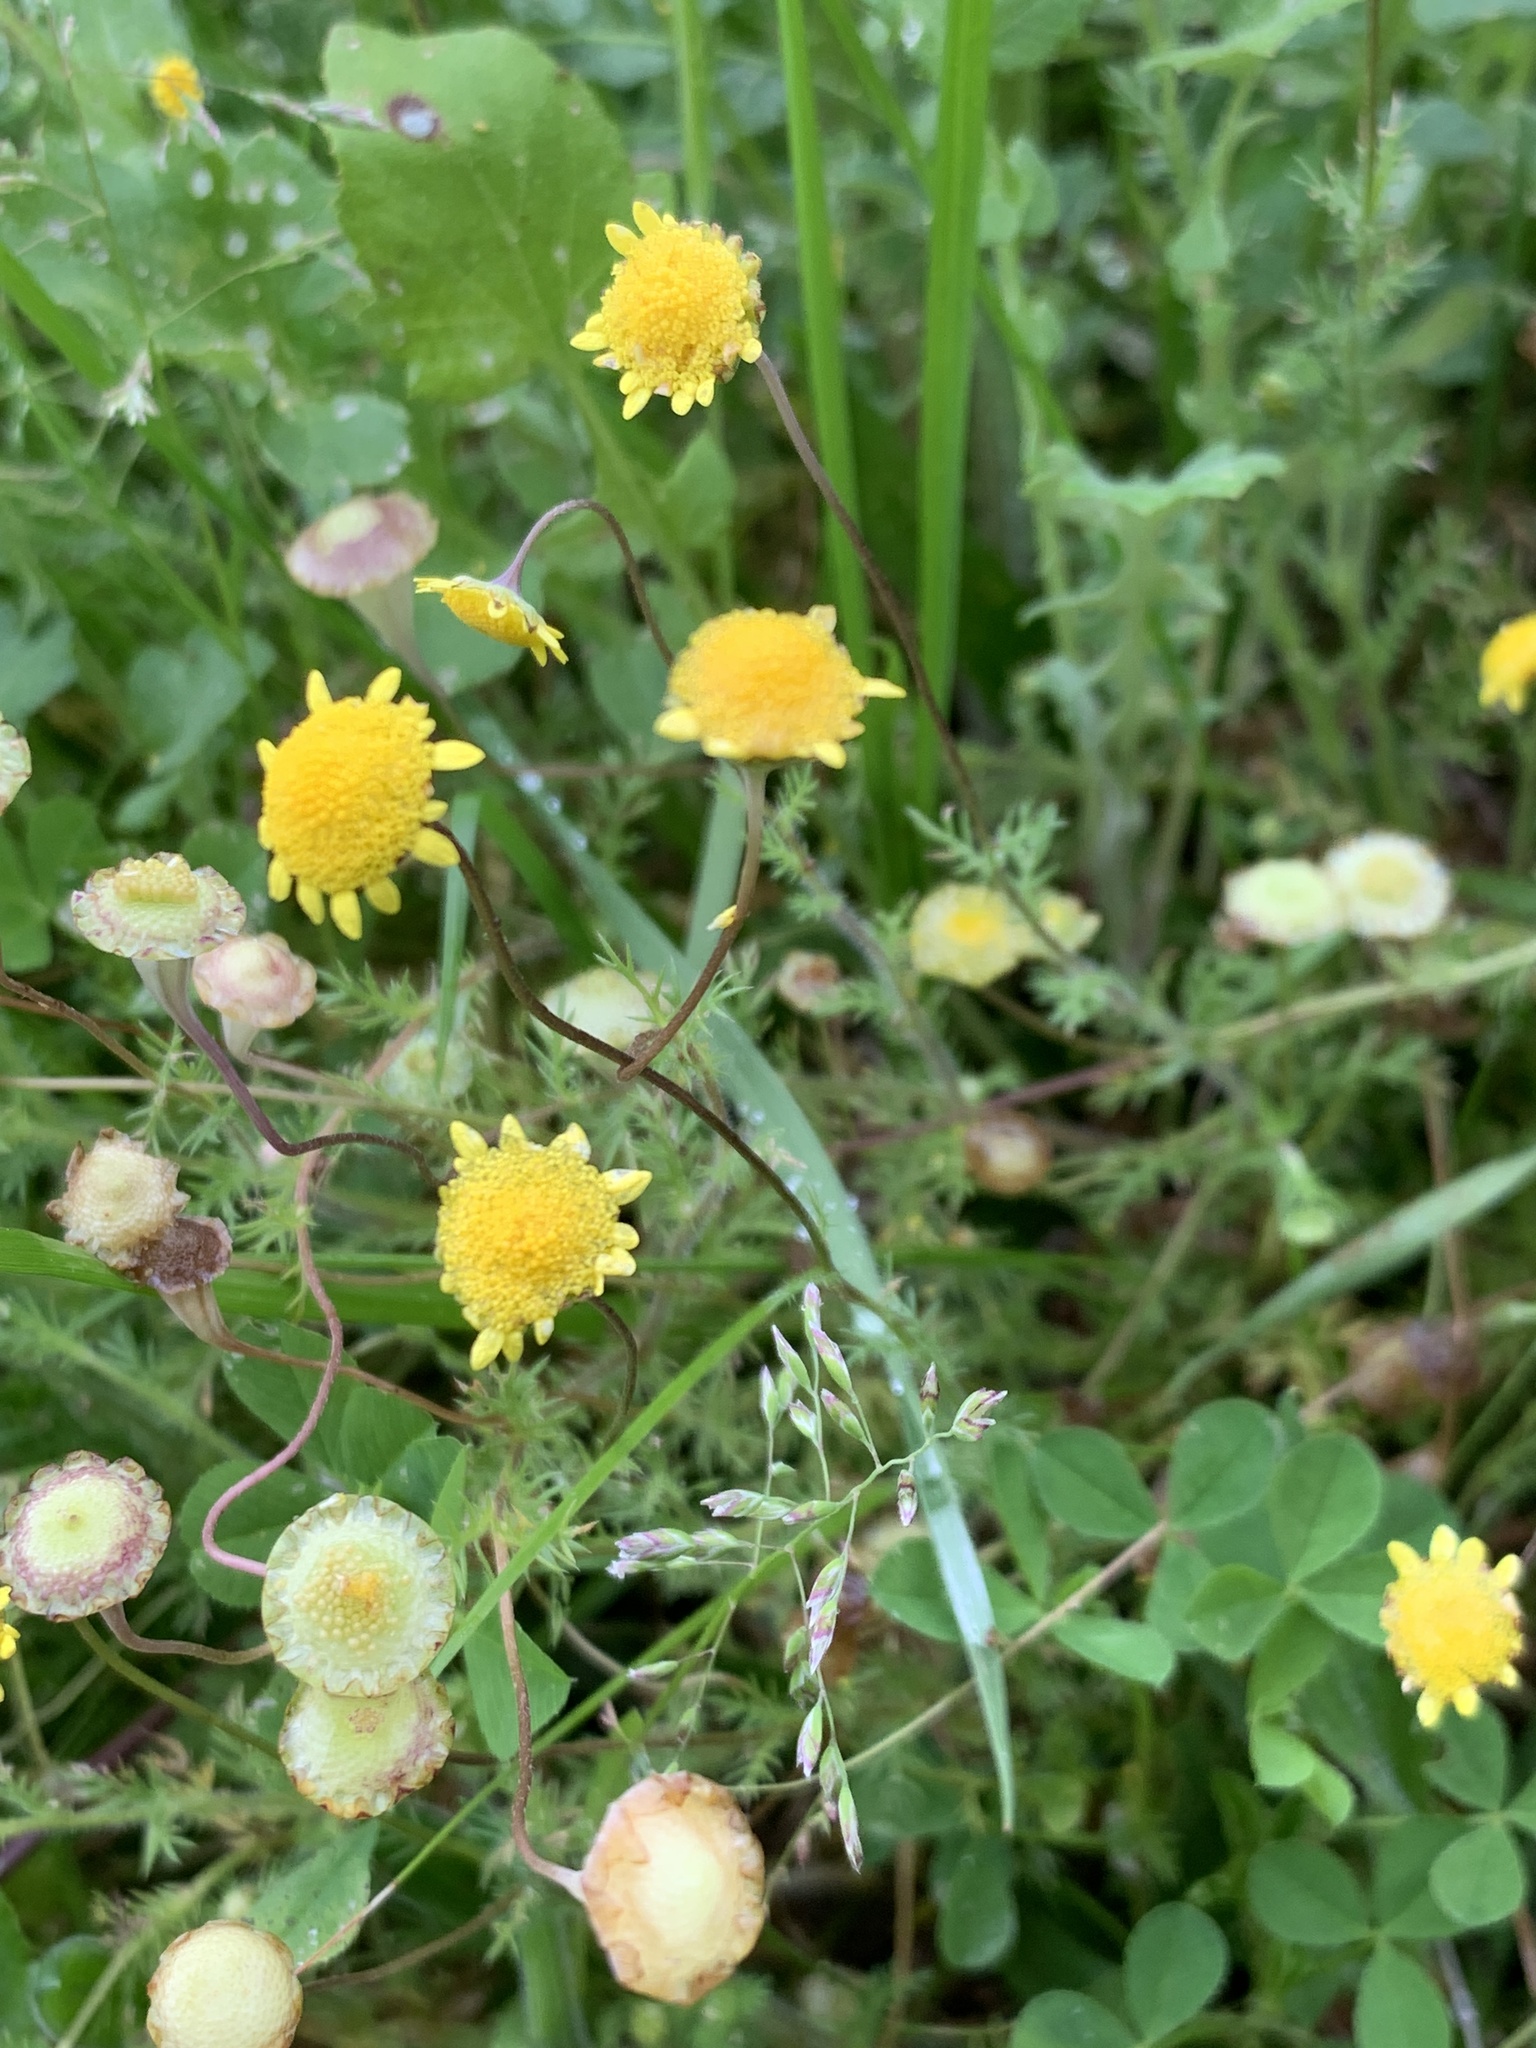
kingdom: Plantae
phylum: Tracheophyta
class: Magnoliopsida
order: Asterales
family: Asteraceae
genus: Cotula
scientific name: Cotula pruinosa
